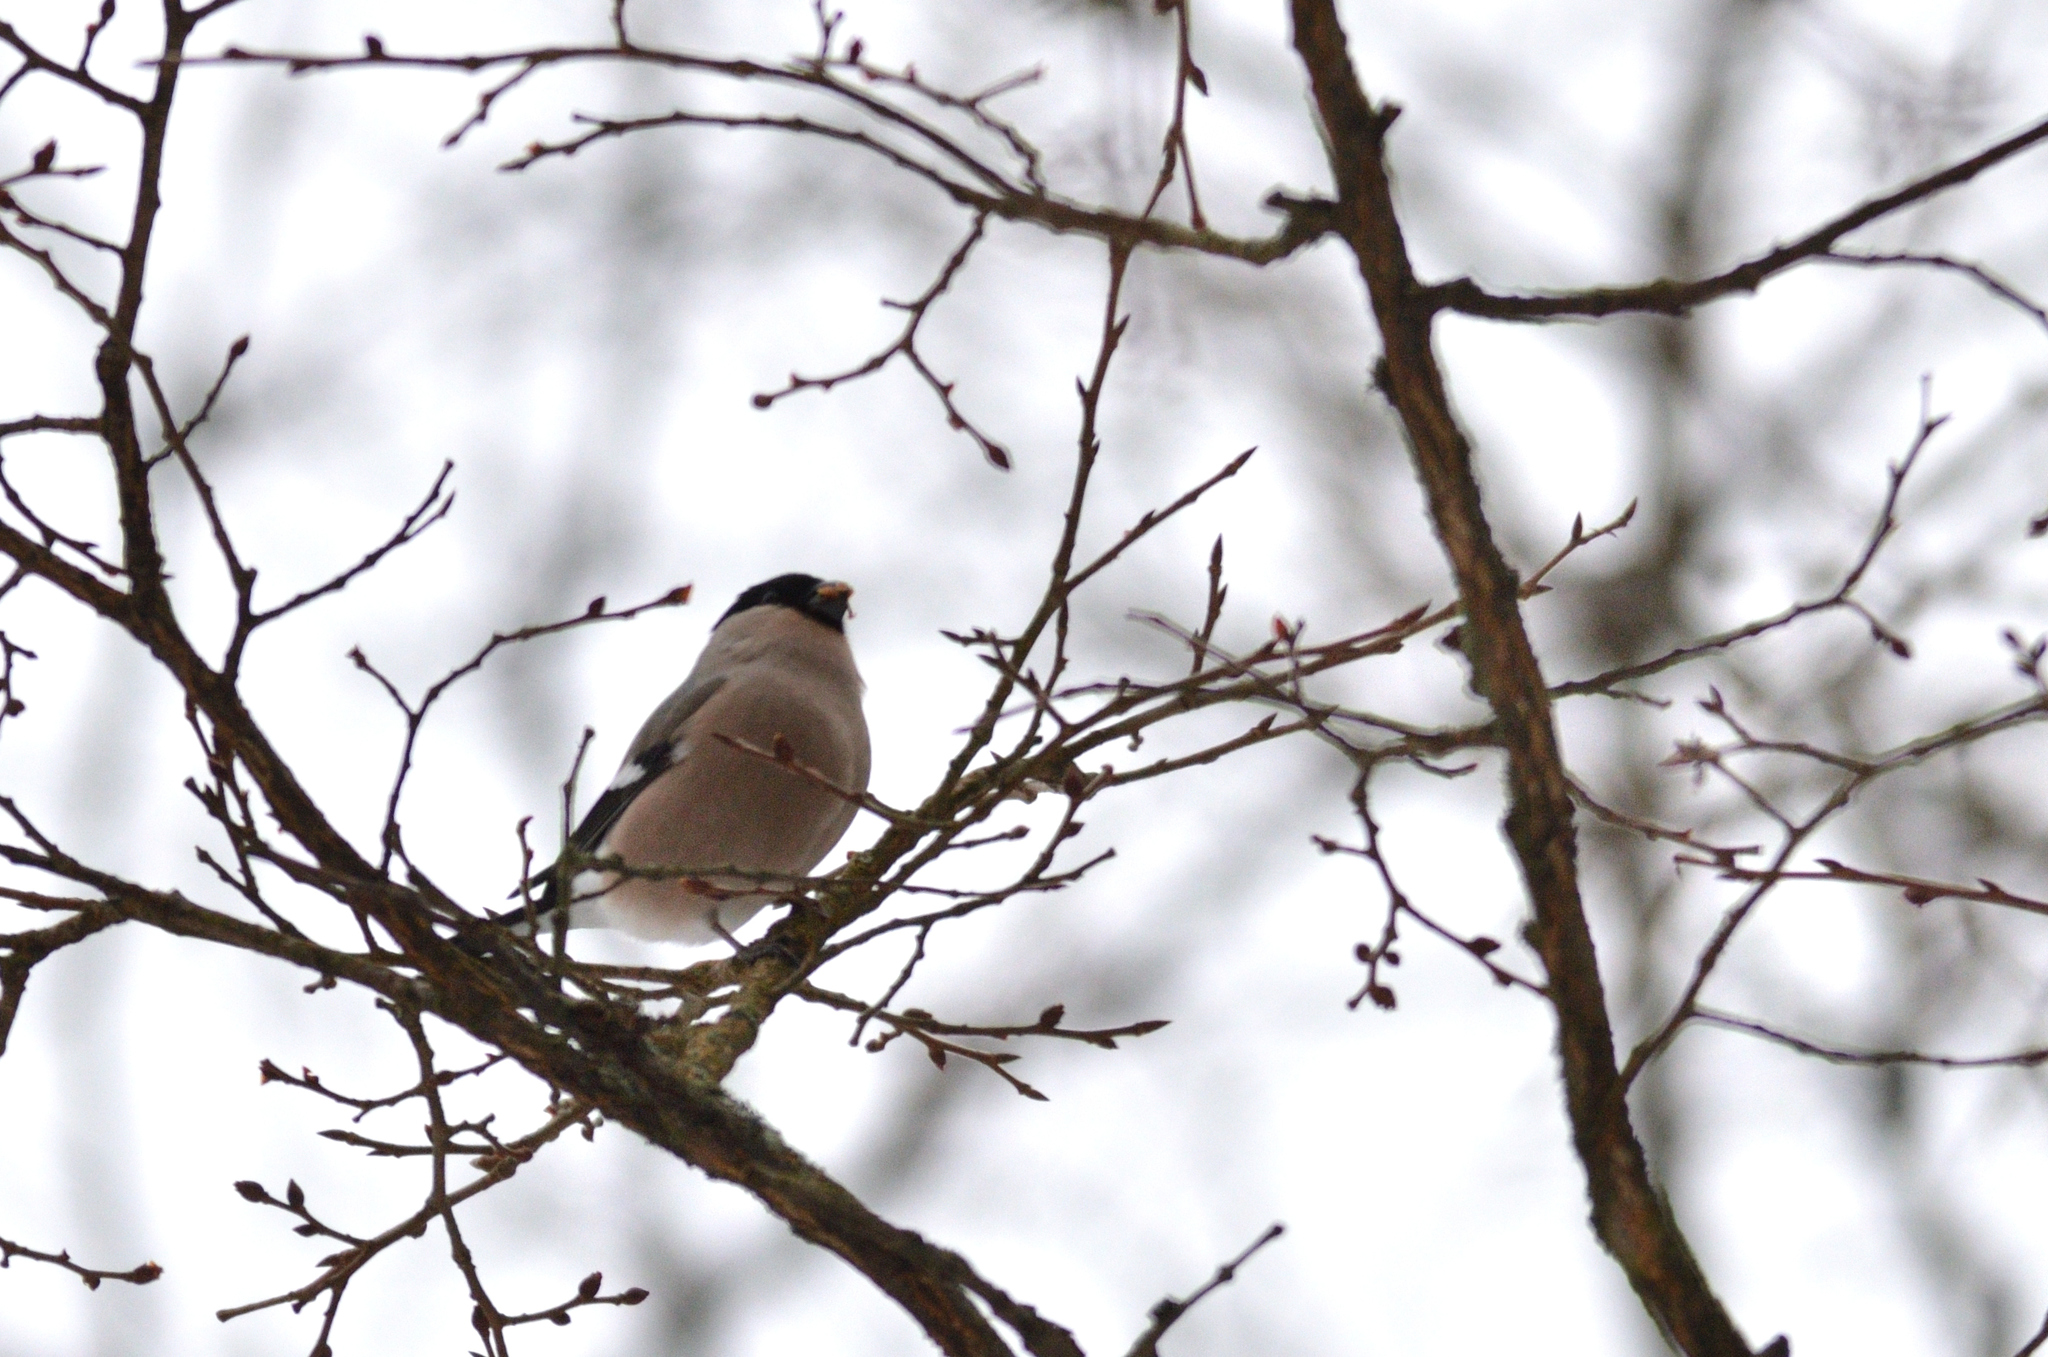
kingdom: Animalia
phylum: Chordata
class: Aves
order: Passeriformes
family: Fringillidae
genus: Pyrrhula
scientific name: Pyrrhula pyrrhula
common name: Eurasian bullfinch
